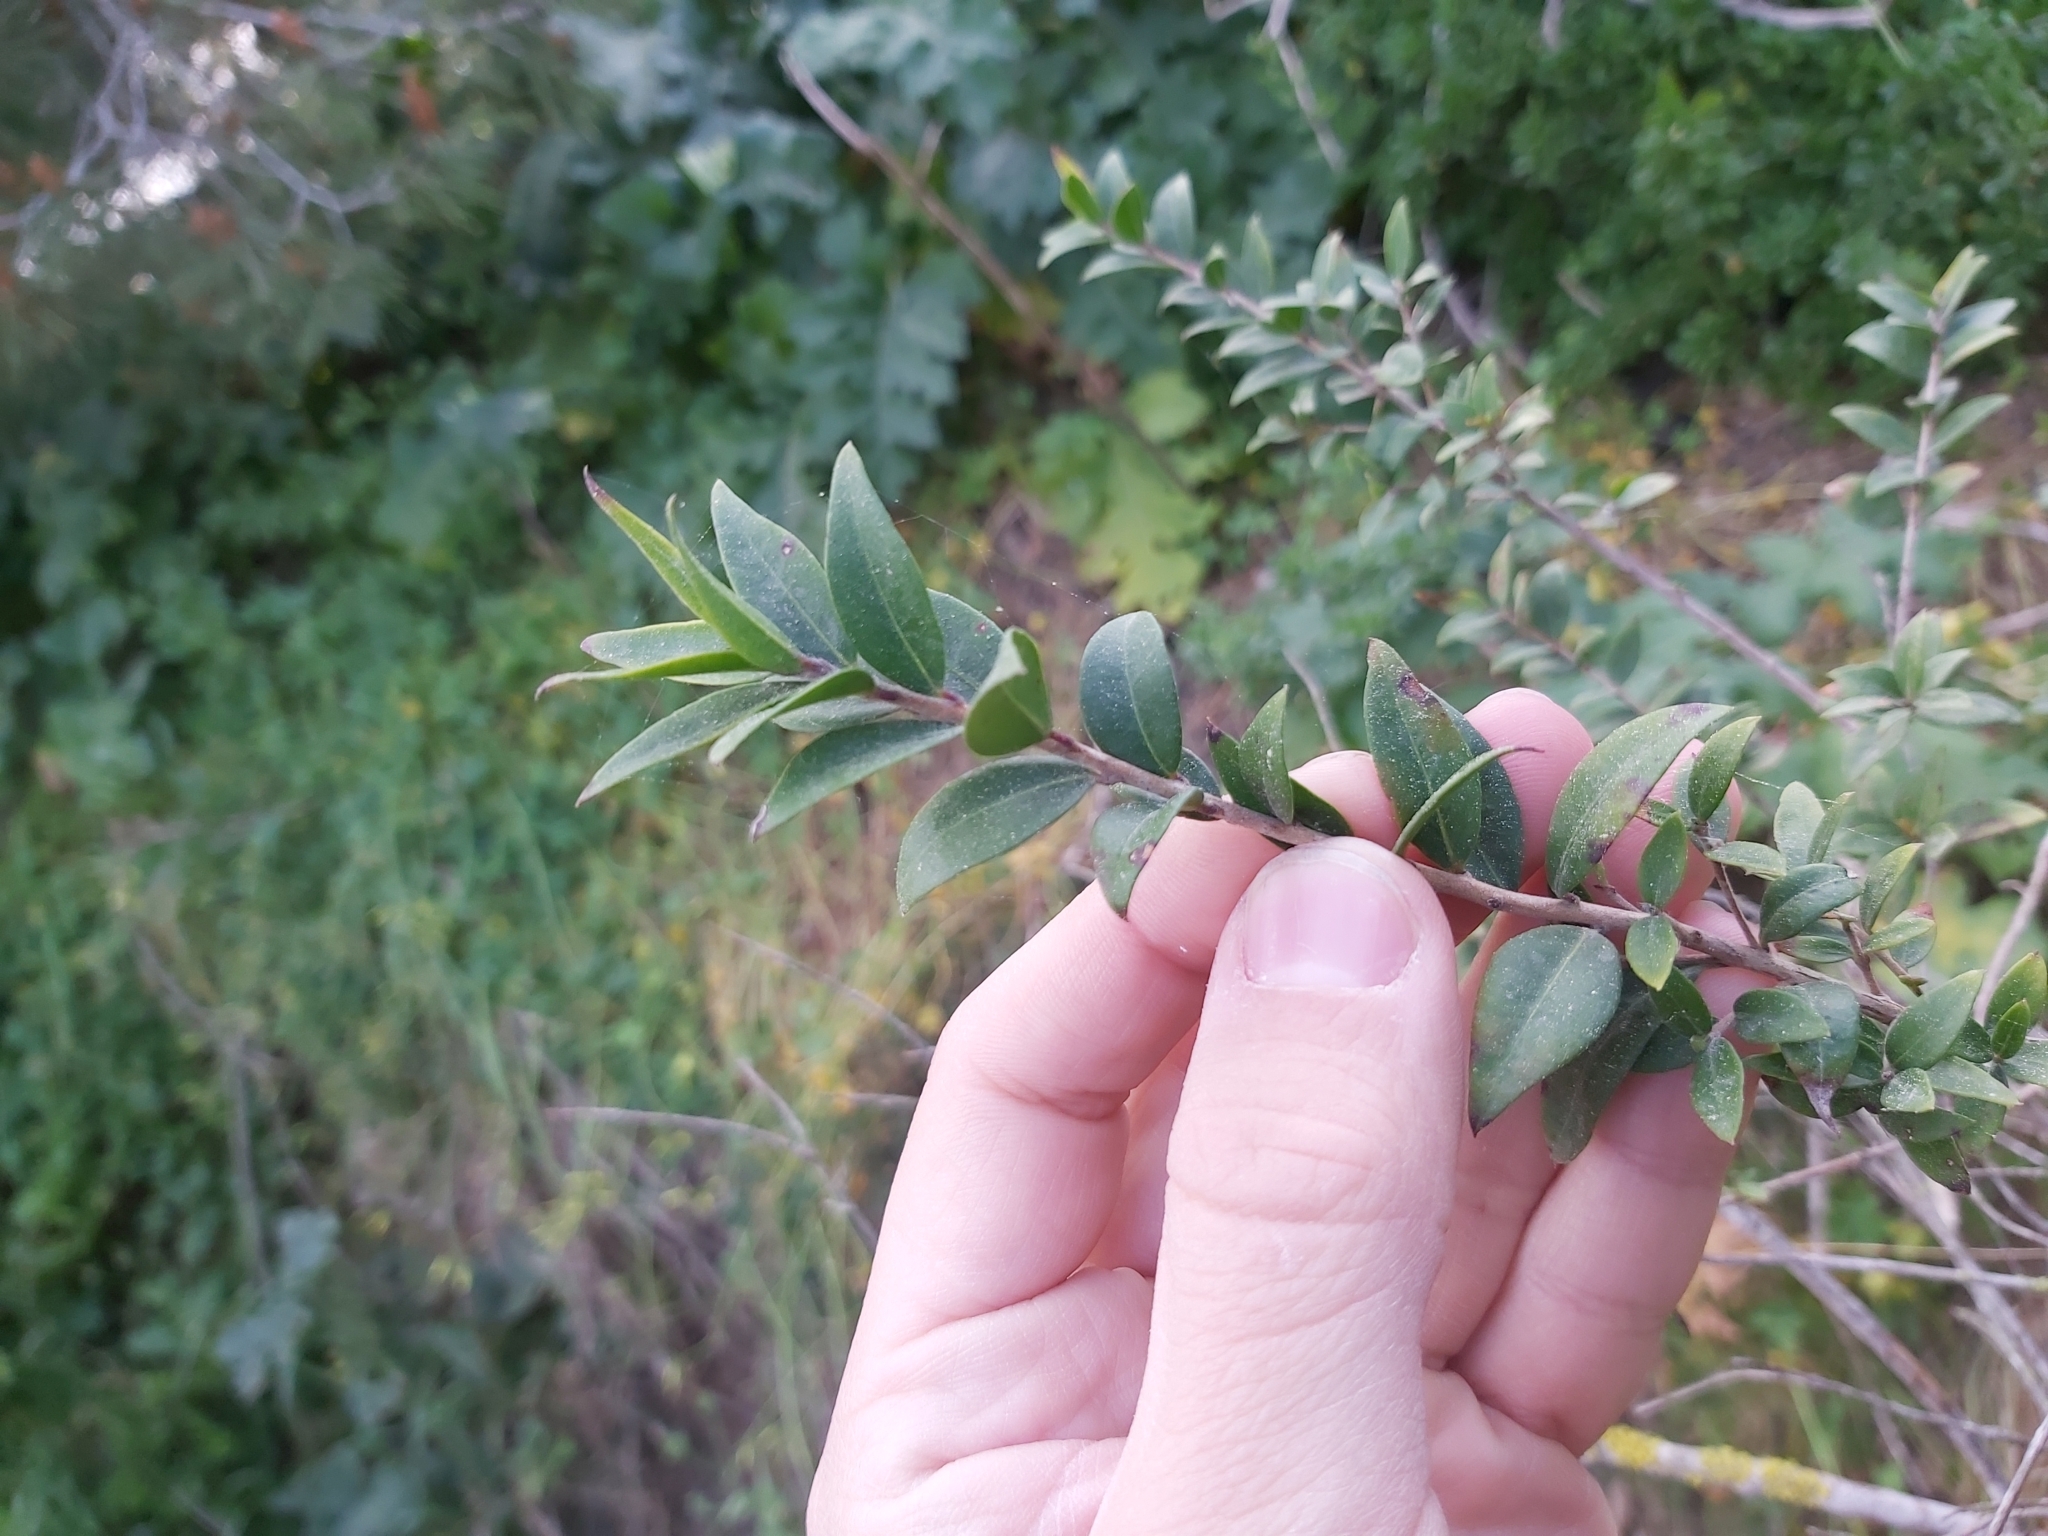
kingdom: Plantae
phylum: Tracheophyta
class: Magnoliopsida
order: Myrtales
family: Myrtaceae
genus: Myrtus
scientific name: Myrtus communis
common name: Myrtle
